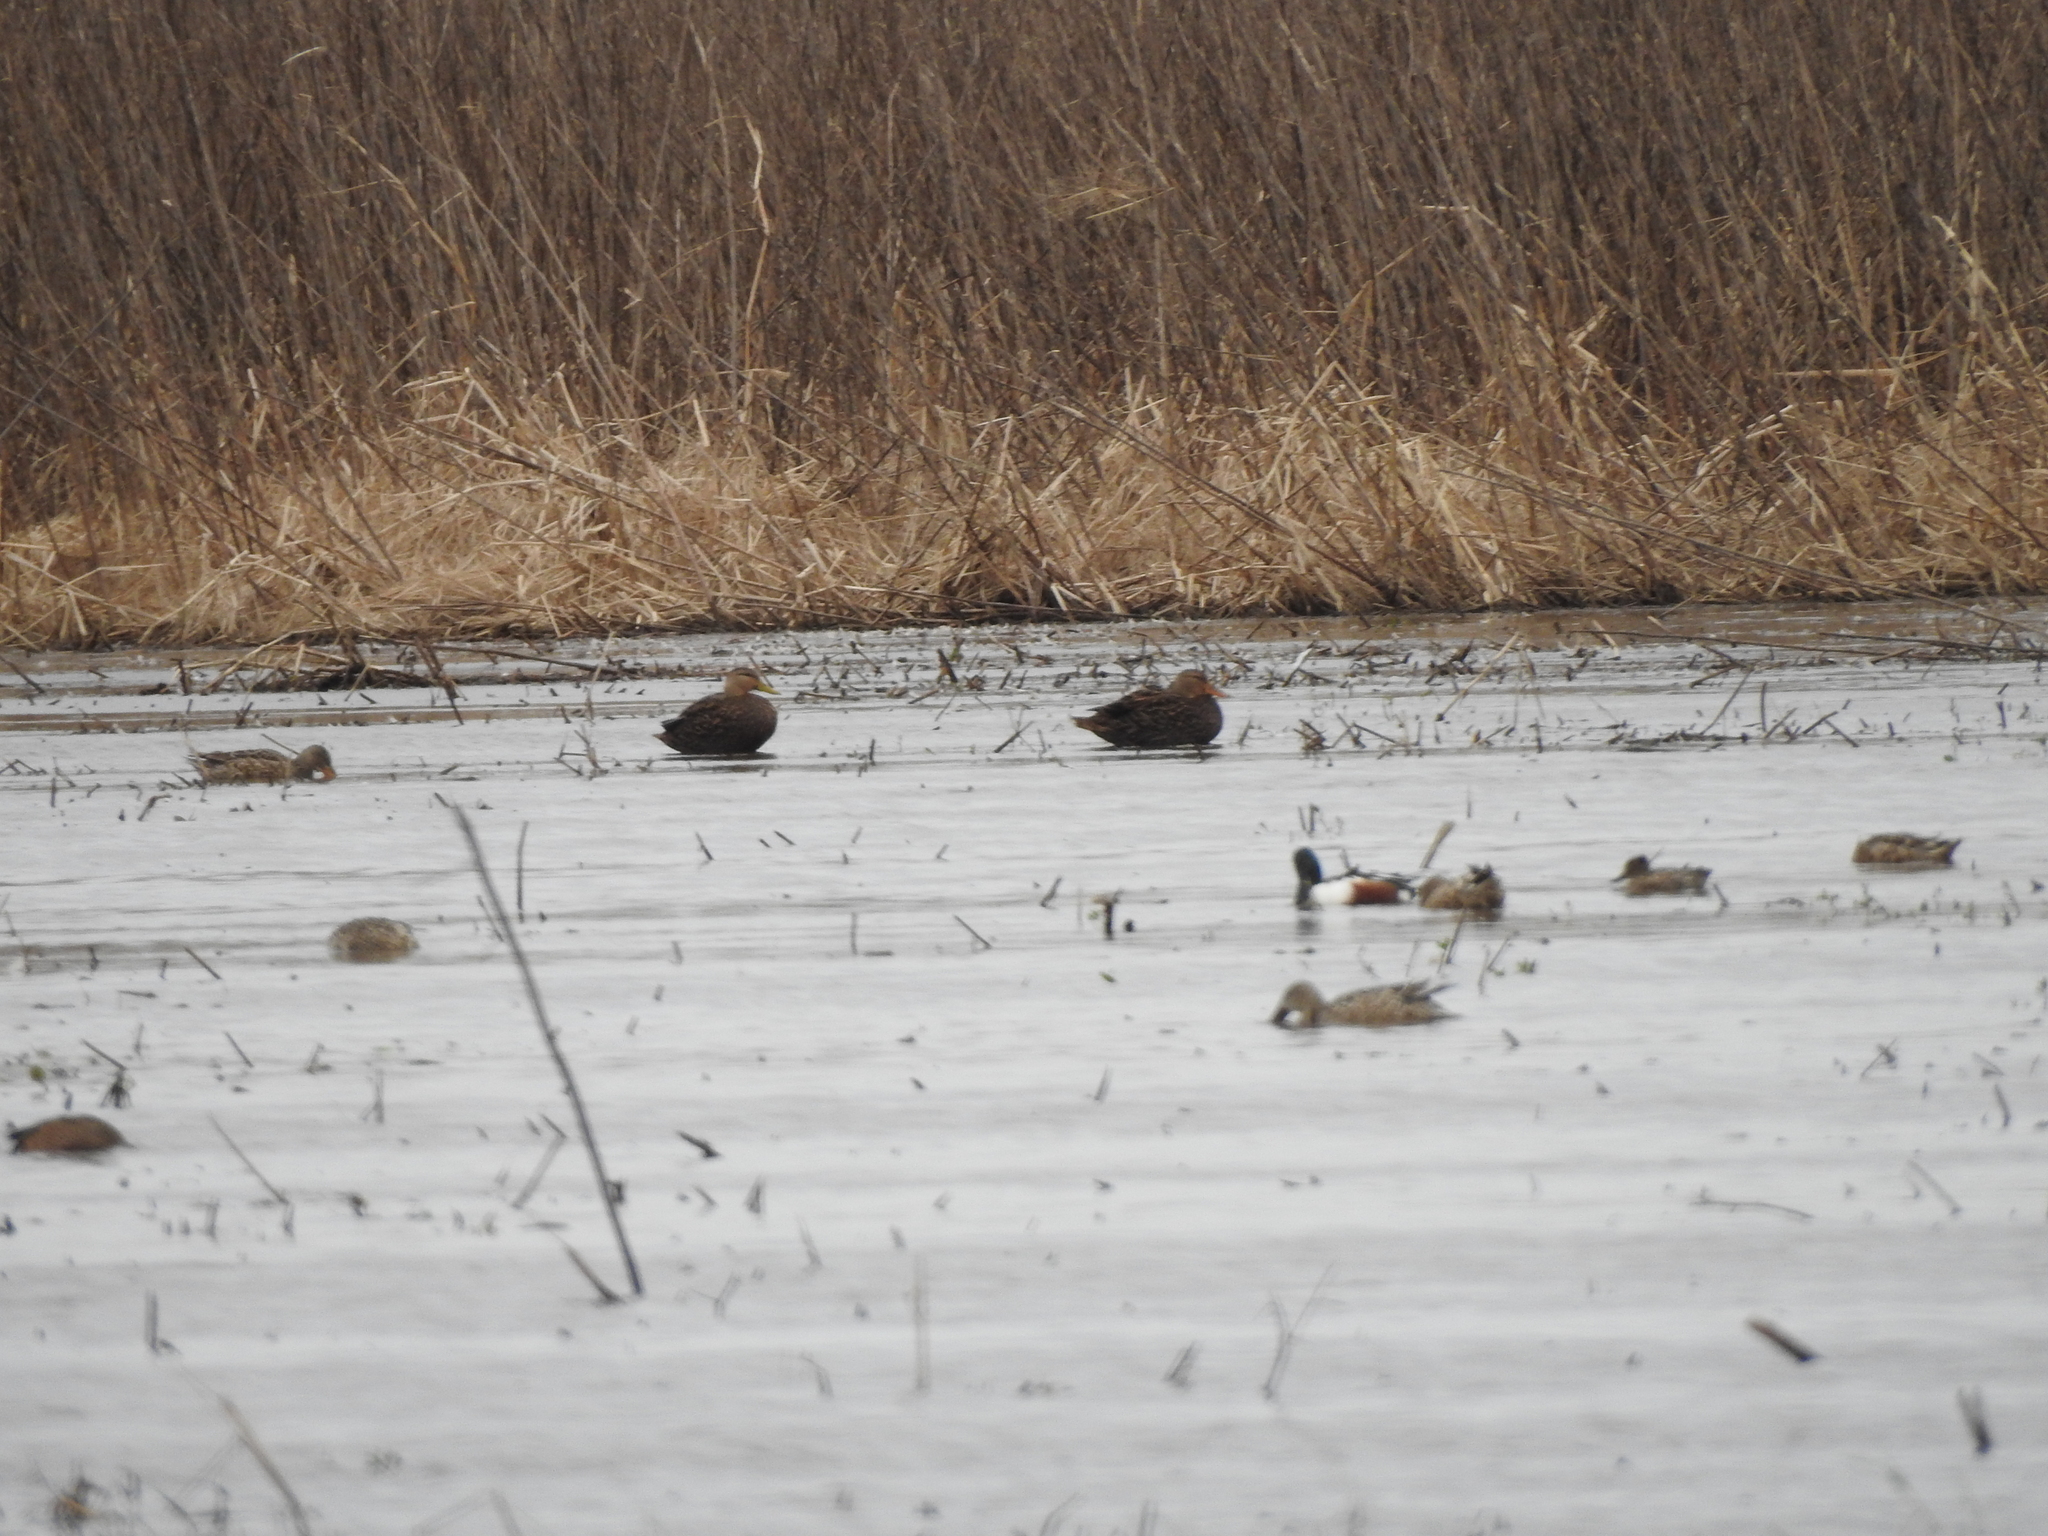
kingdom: Animalia
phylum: Chordata
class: Aves
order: Anseriformes
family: Anatidae
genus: Anas
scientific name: Anas fulvigula
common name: Mottled duck
